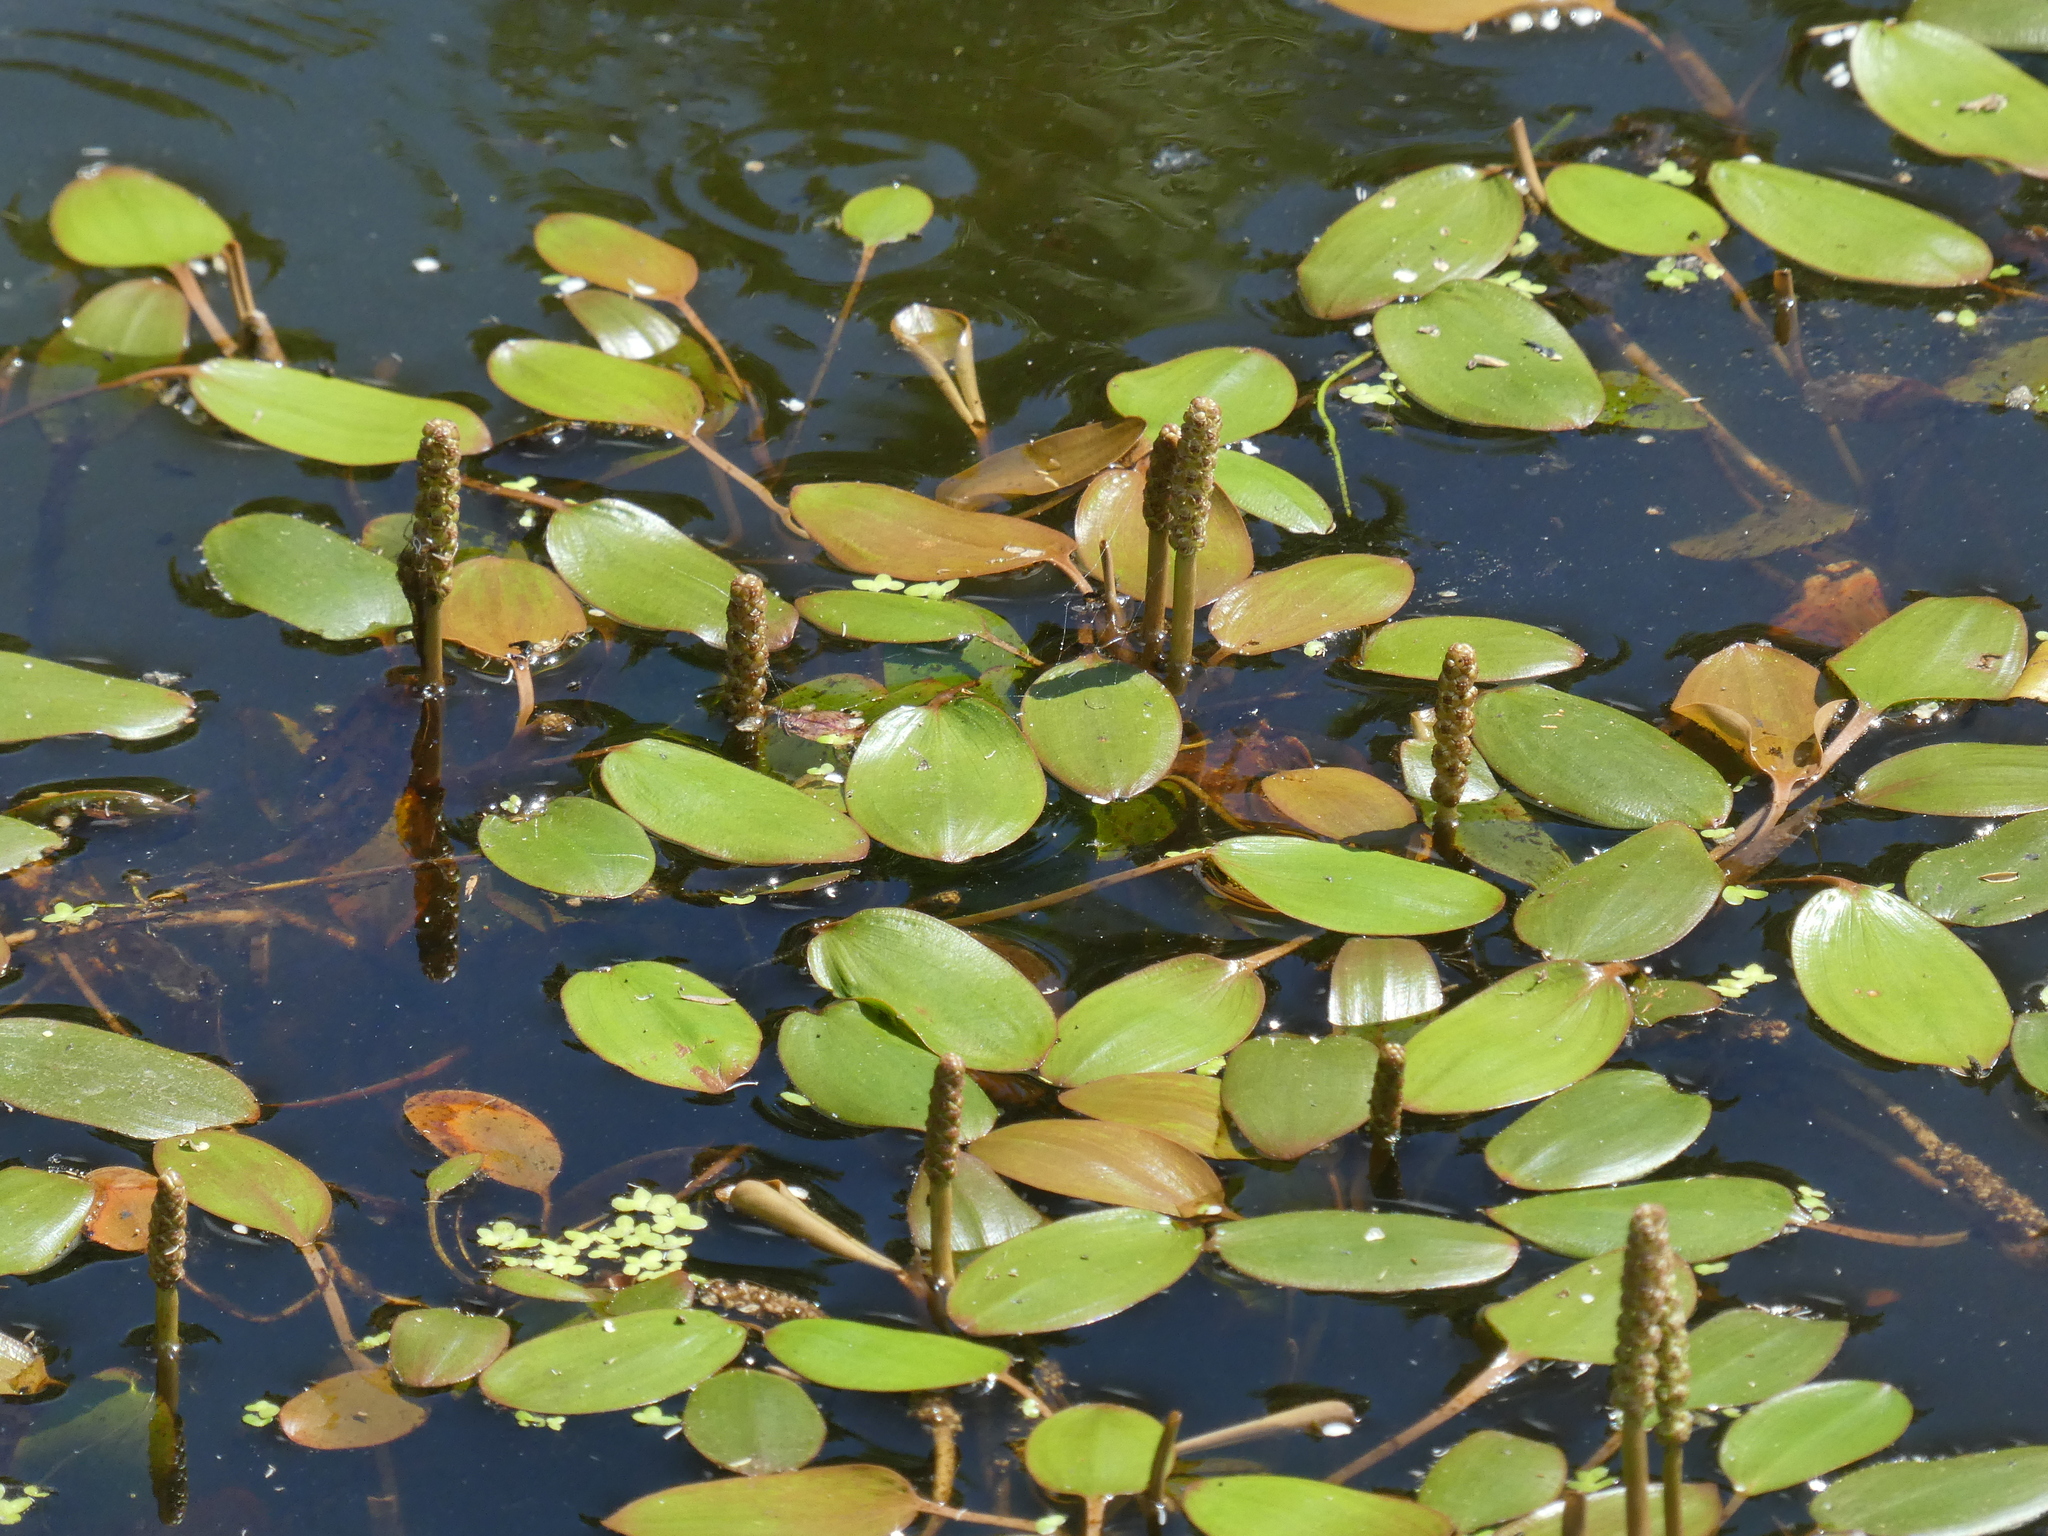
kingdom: Plantae
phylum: Tracheophyta
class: Liliopsida
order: Alismatales
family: Potamogetonaceae
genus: Potamogeton
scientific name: Potamogeton cheesemanii
